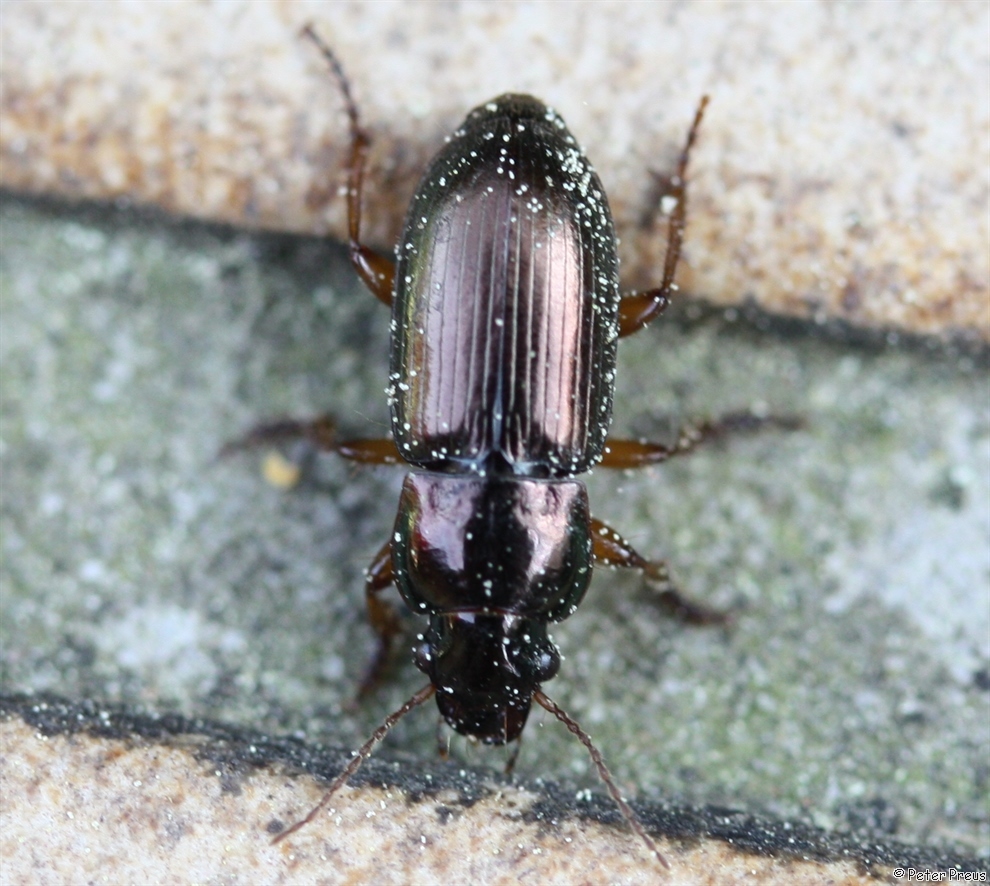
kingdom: Animalia
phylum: Arthropoda
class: Insecta
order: Coleoptera
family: Carabidae
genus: Harpalus
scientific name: Harpalus affinis
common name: Polychrome harp ground beetle
